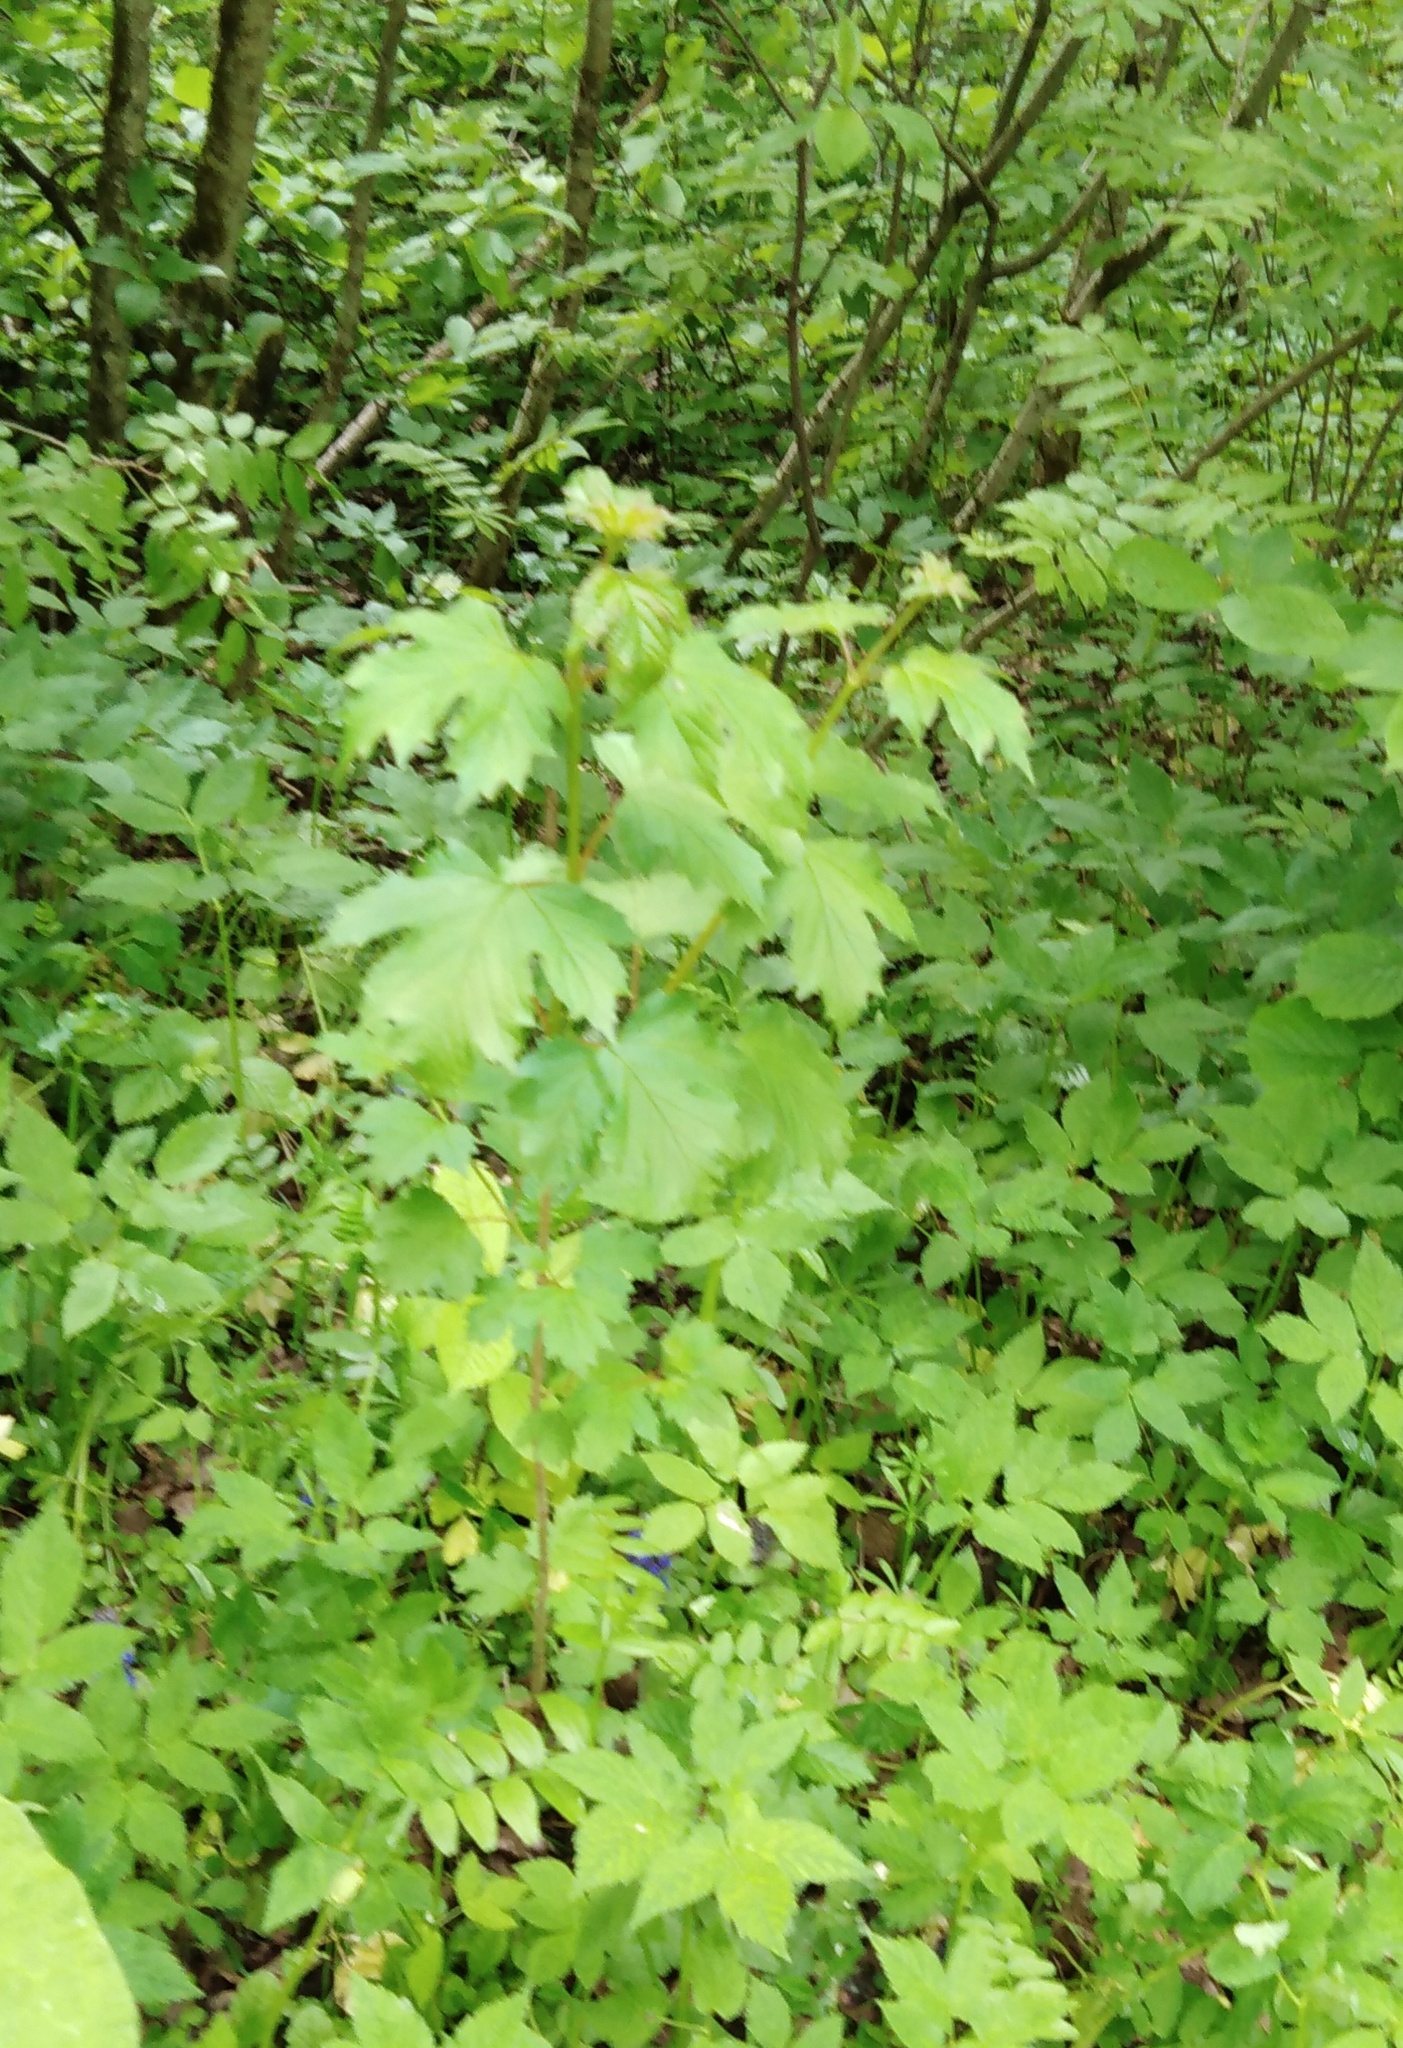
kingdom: Plantae
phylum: Tracheophyta
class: Magnoliopsida
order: Dipsacales
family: Viburnaceae
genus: Viburnum
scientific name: Viburnum opulus
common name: Guelder-rose
